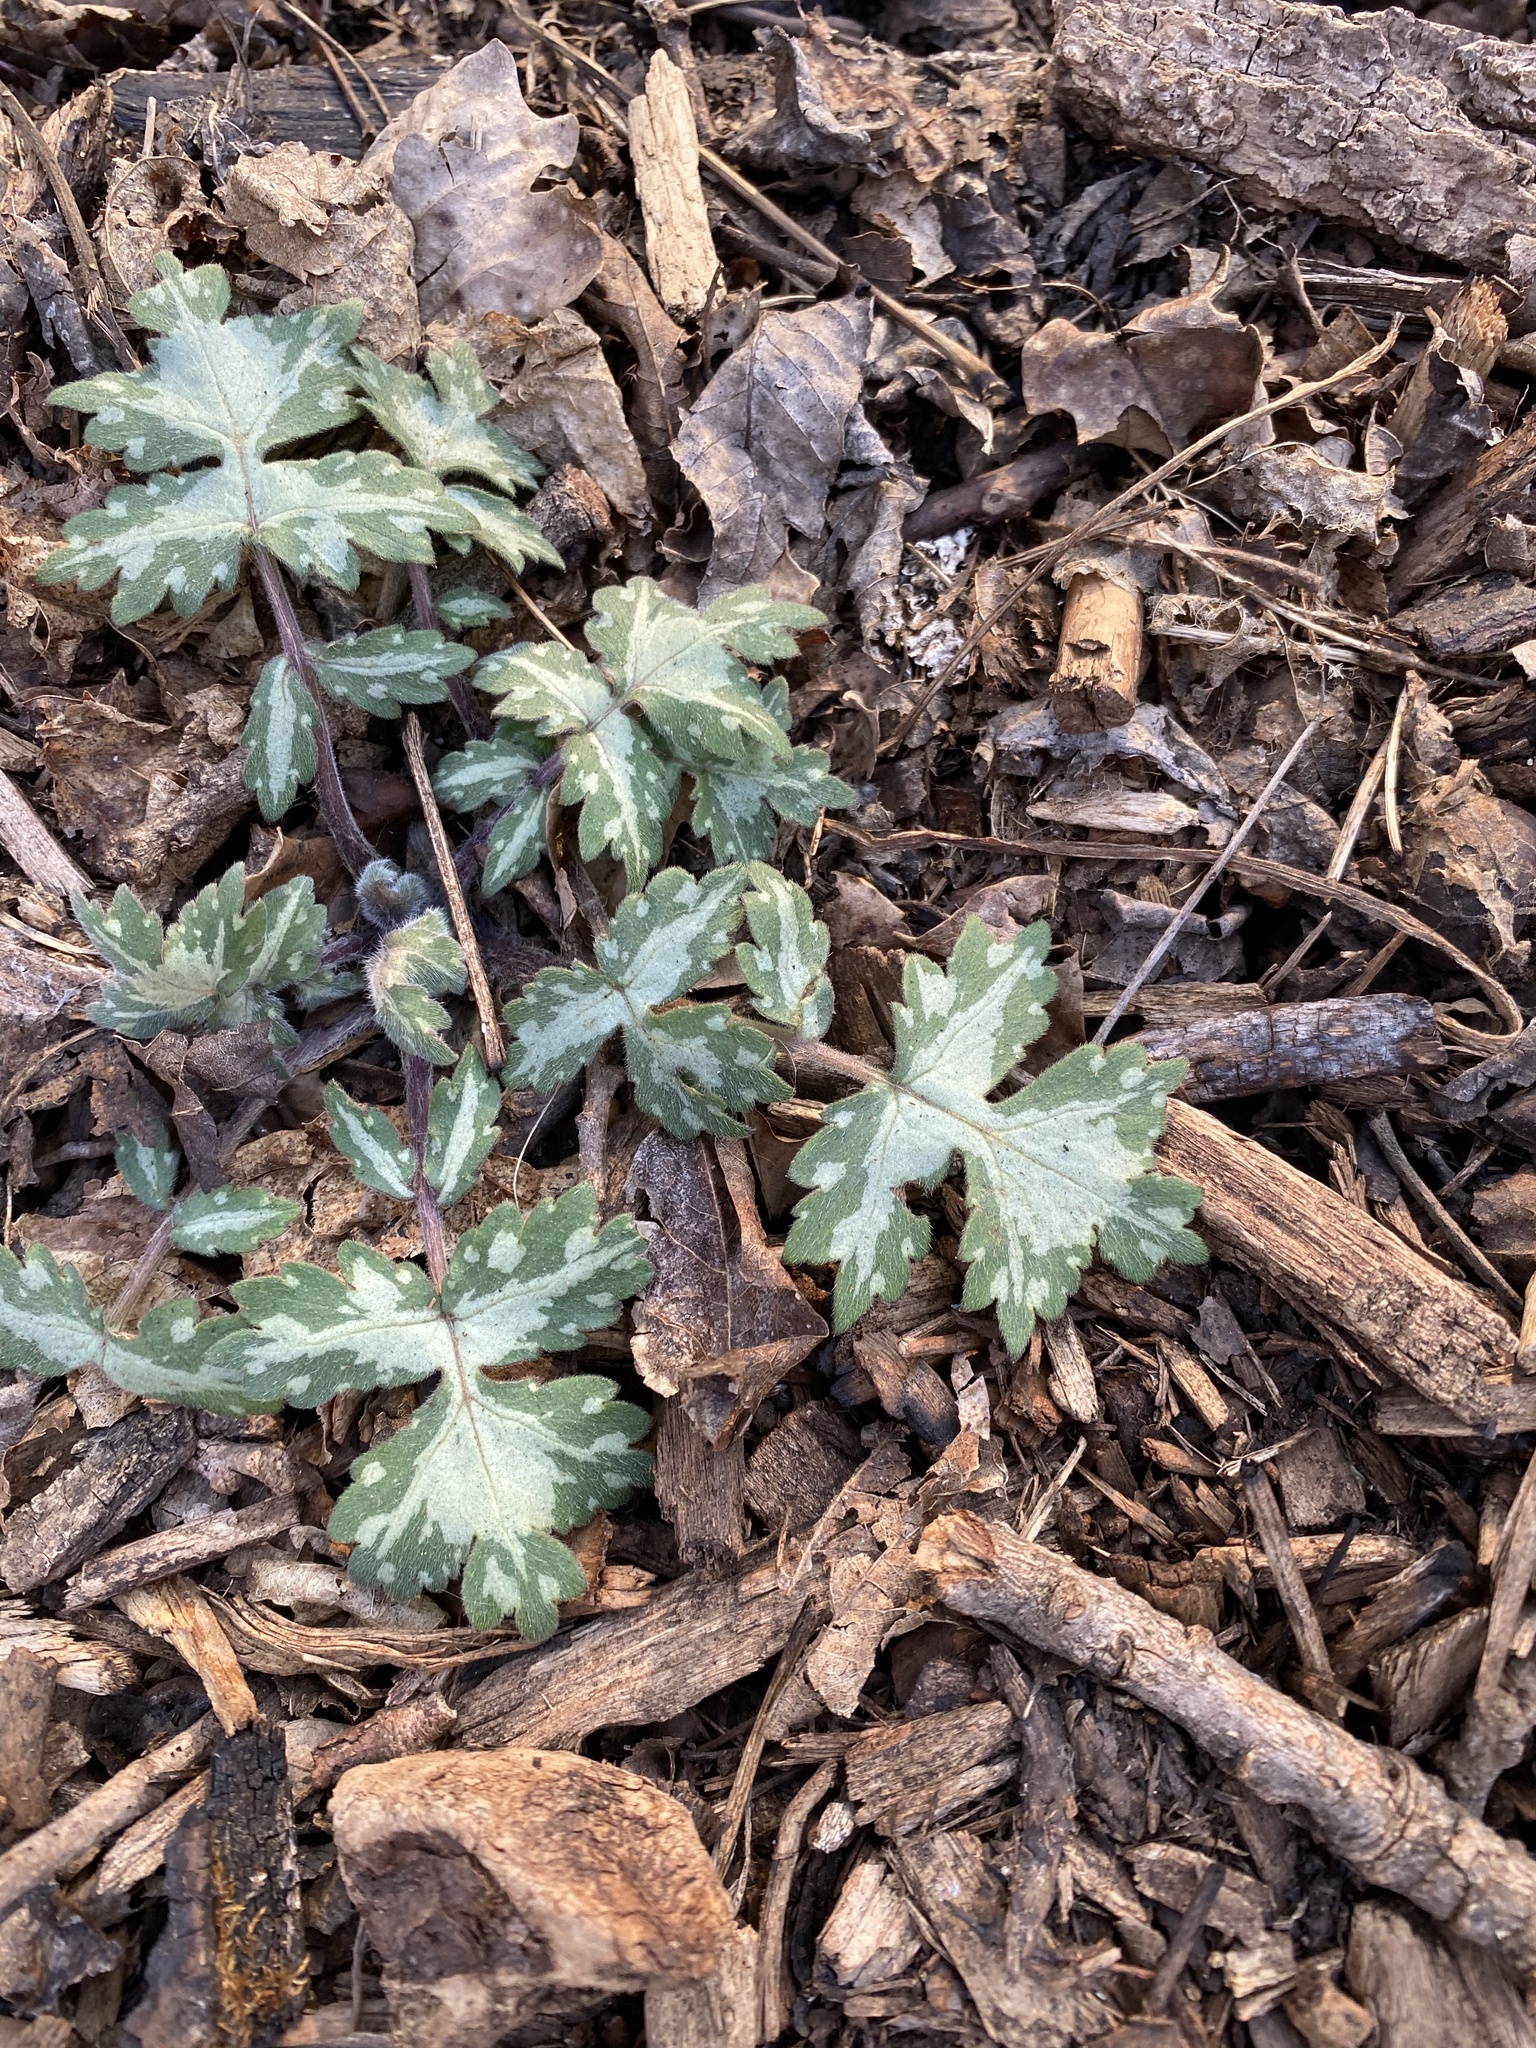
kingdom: Plantae
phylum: Tracheophyta
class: Magnoliopsida
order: Boraginales
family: Hydrophyllaceae
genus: Hydrophyllum
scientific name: Hydrophyllum appendiculatum
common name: Appendaged waterleaf
